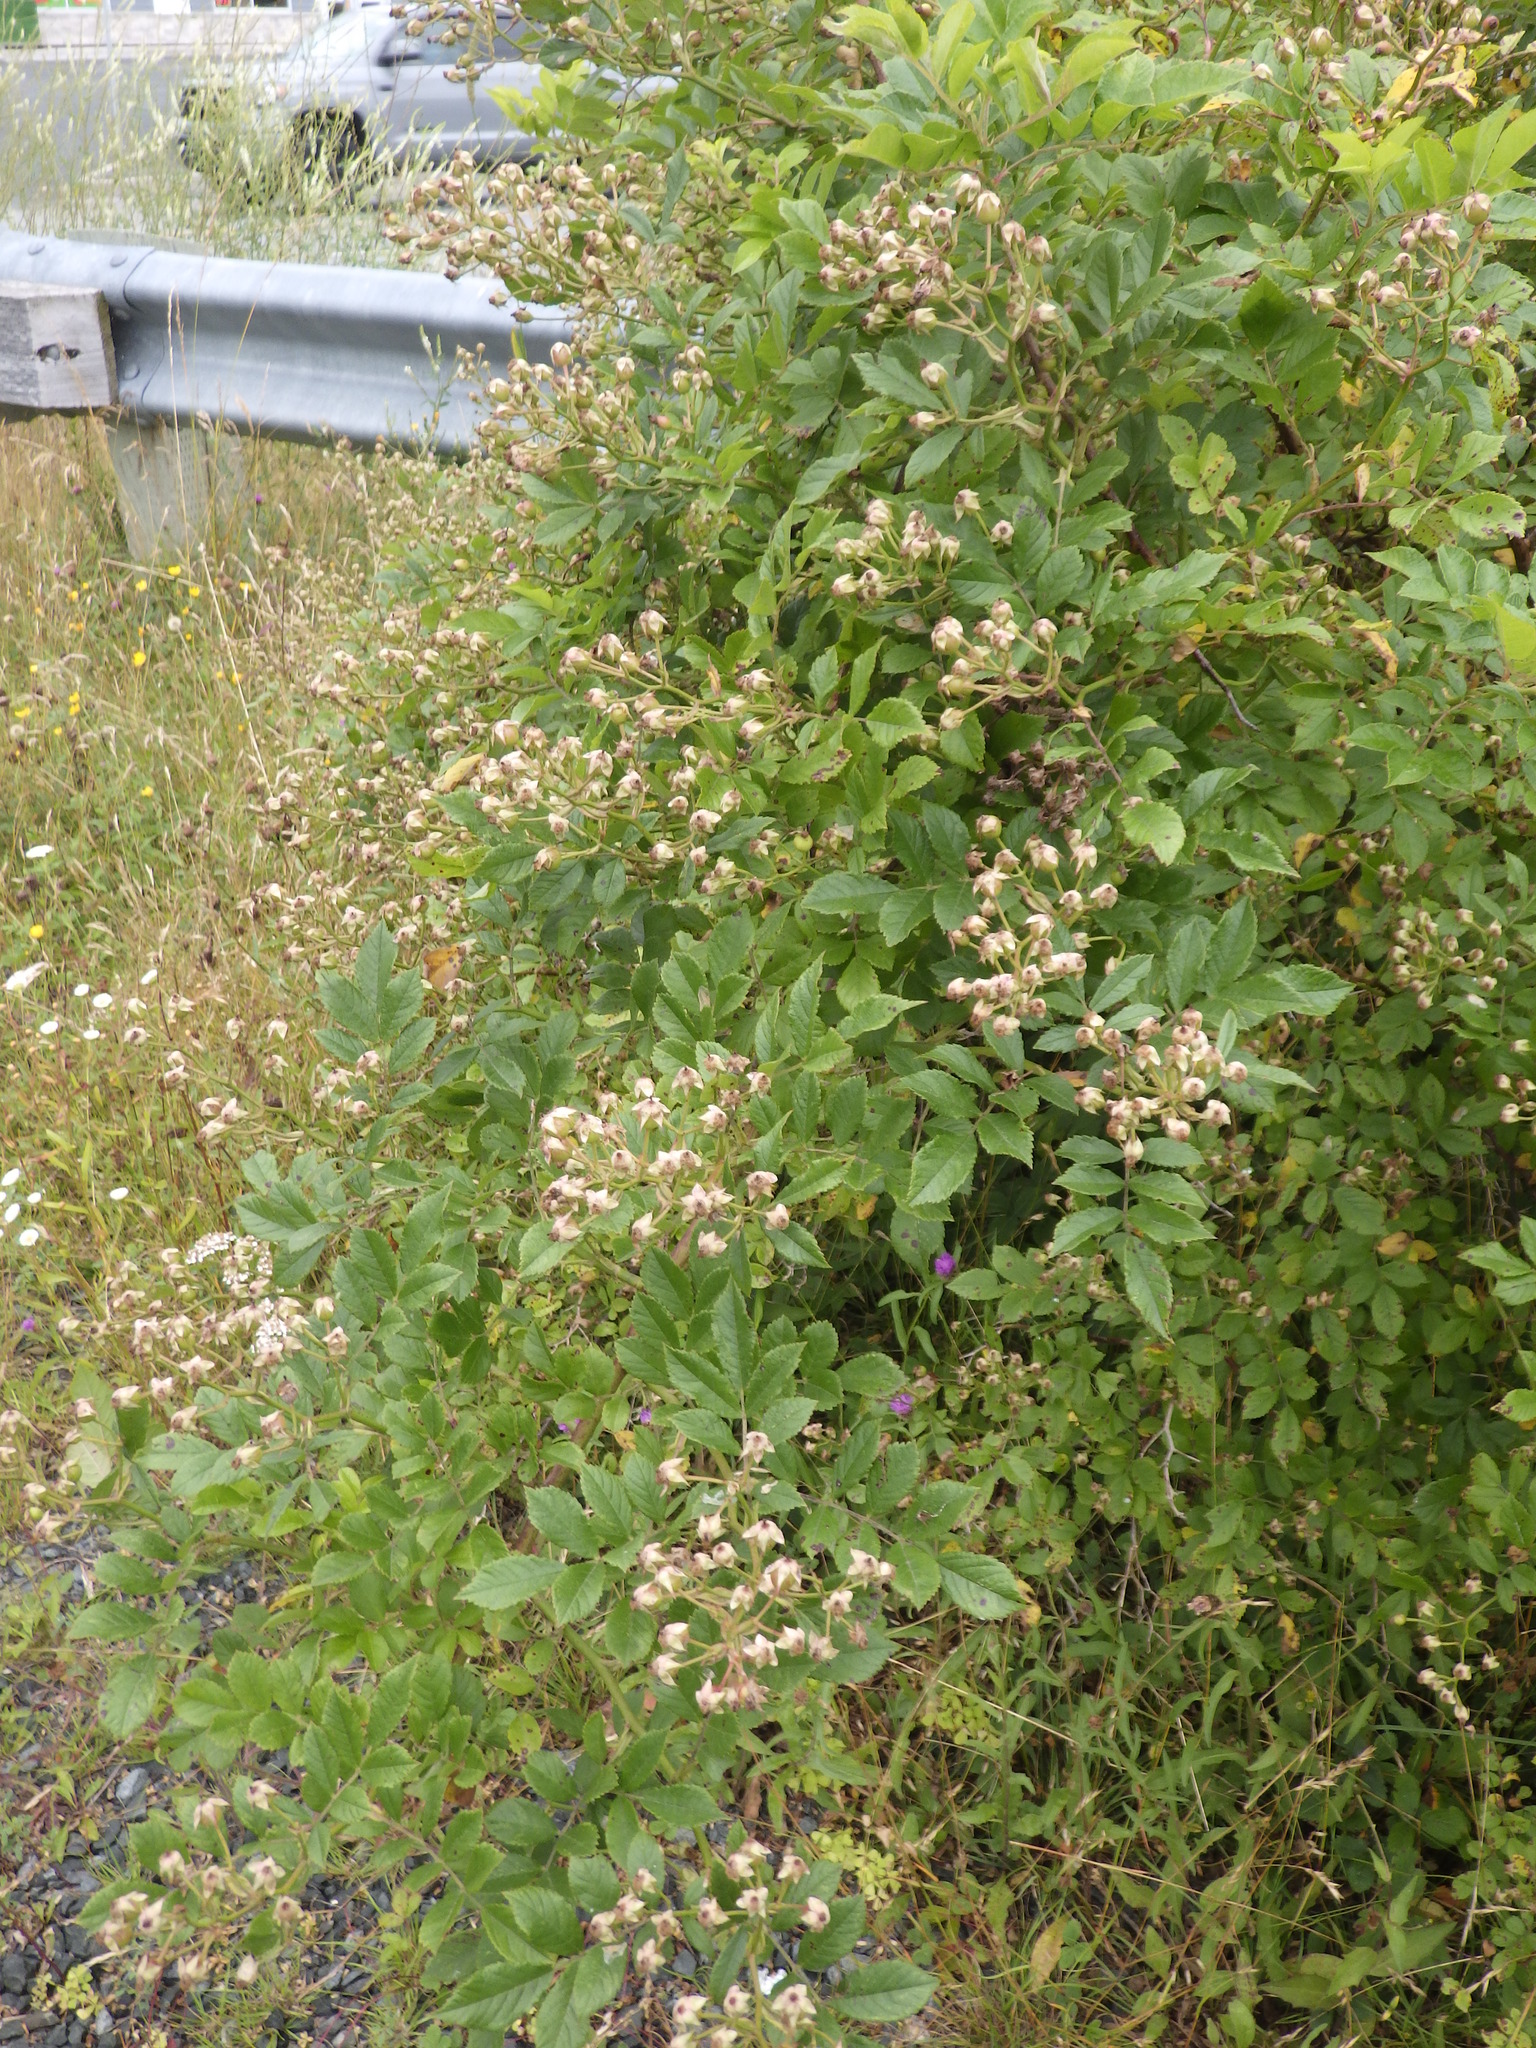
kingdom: Plantae
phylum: Tracheophyta
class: Magnoliopsida
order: Rosales
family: Rosaceae
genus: Rosa
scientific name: Rosa multiflora
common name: Multiflora rose
